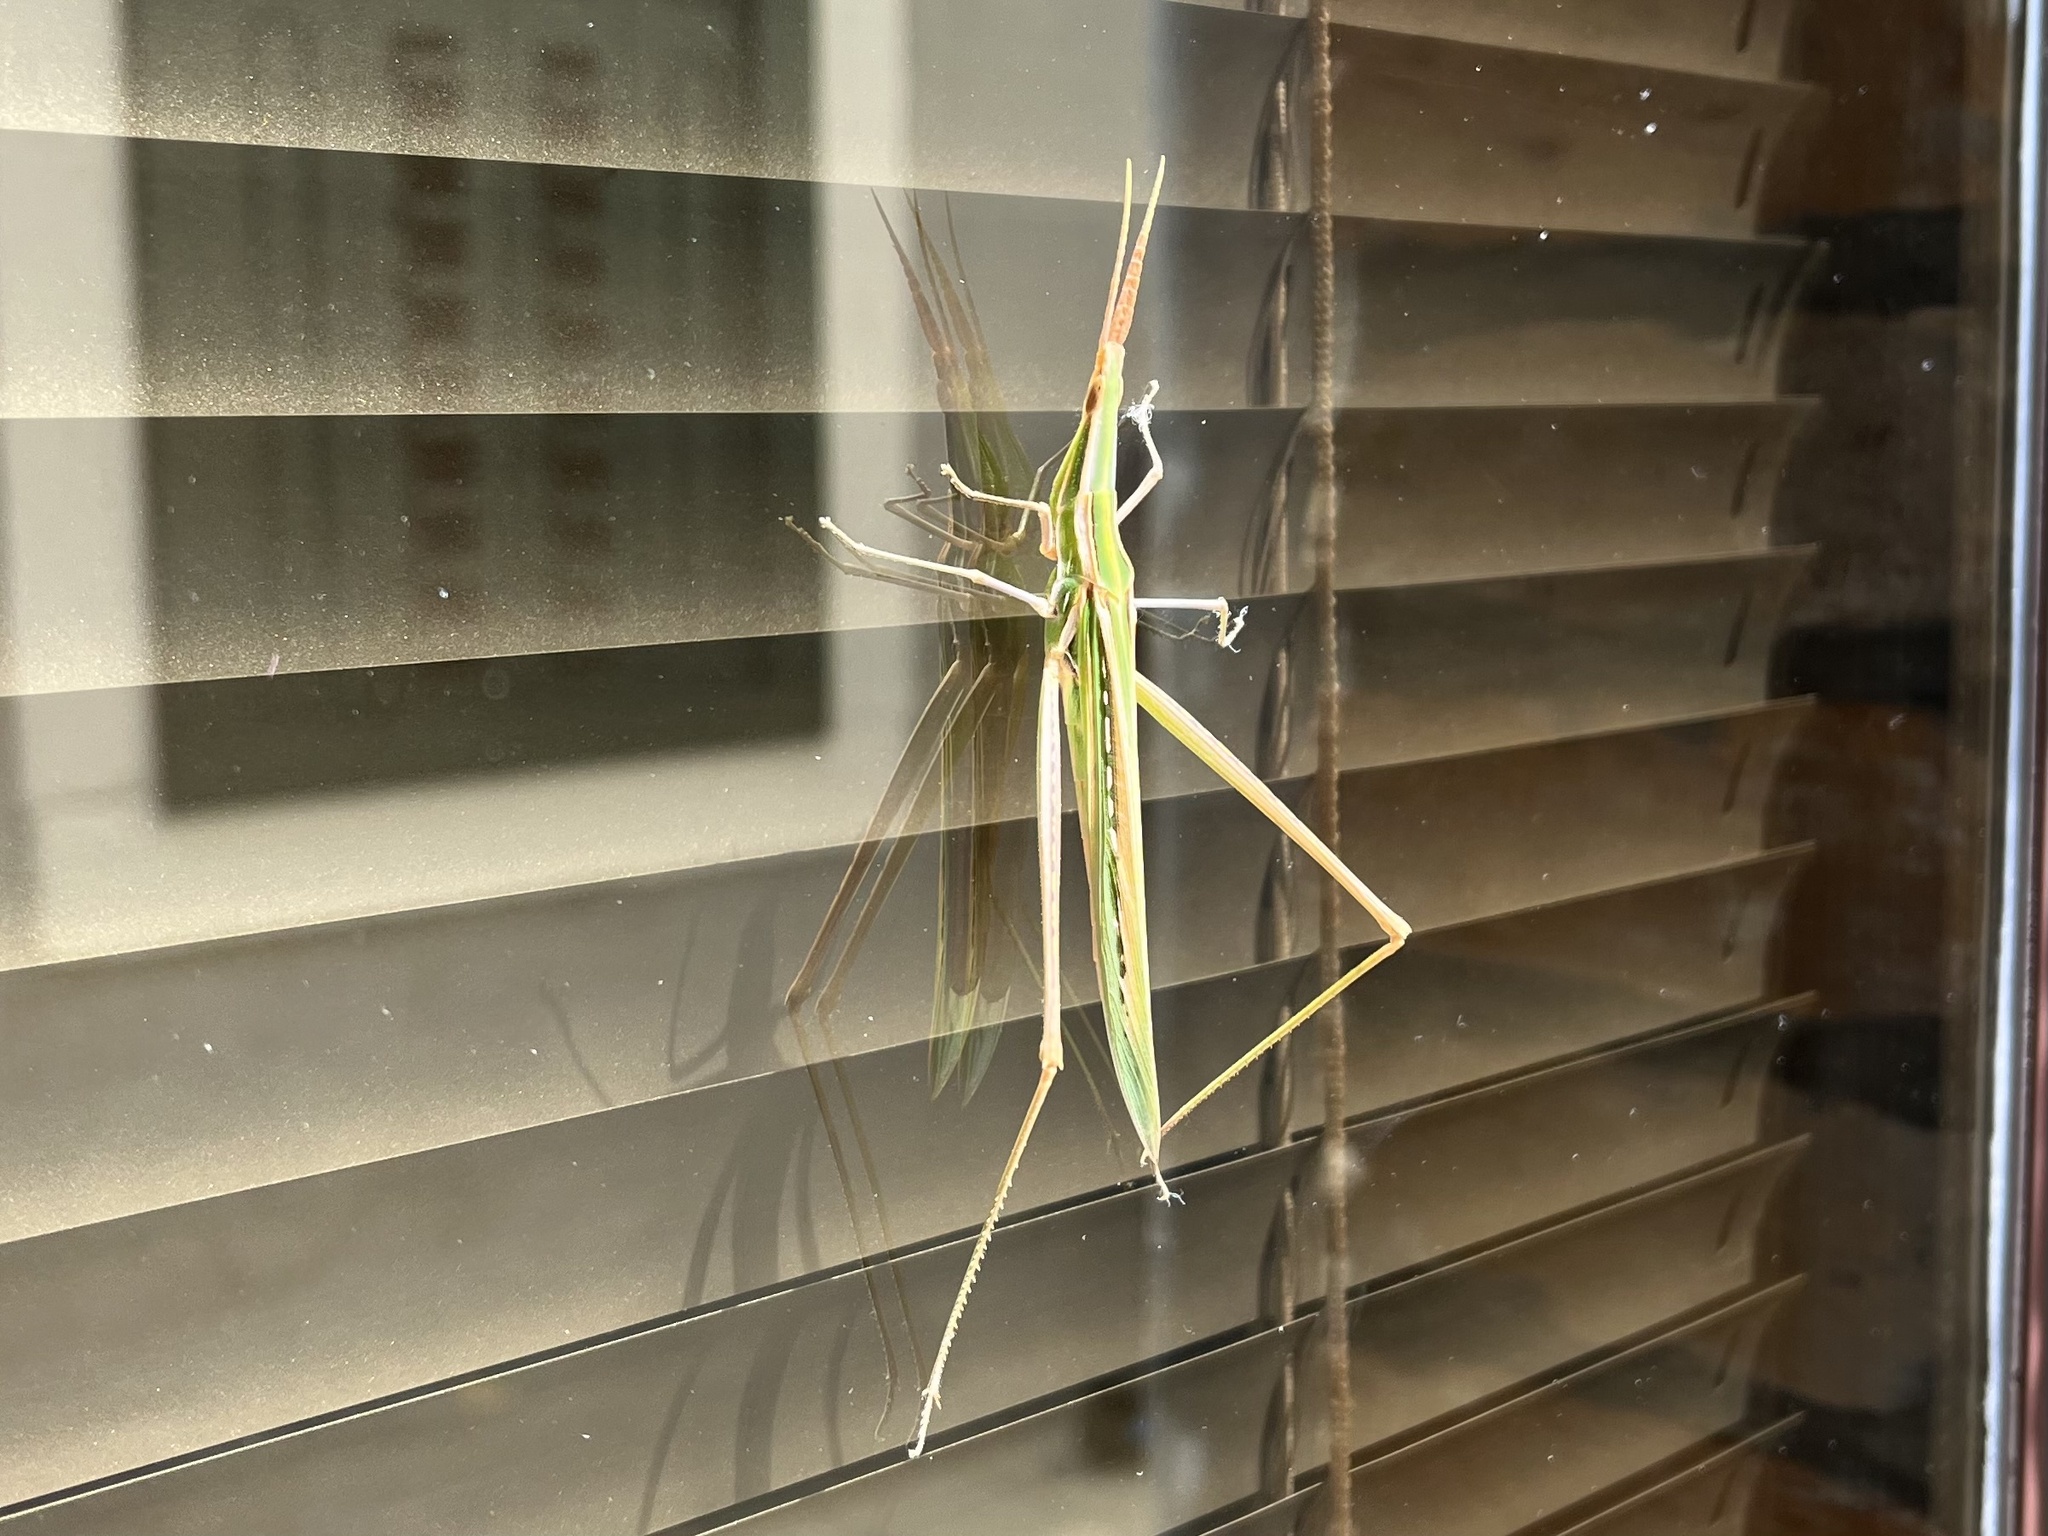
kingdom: Animalia
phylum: Arthropoda
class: Insecta
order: Orthoptera
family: Acrididae
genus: Acrida
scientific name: Acrida ungarica
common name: Common cone-headed grasshopper
